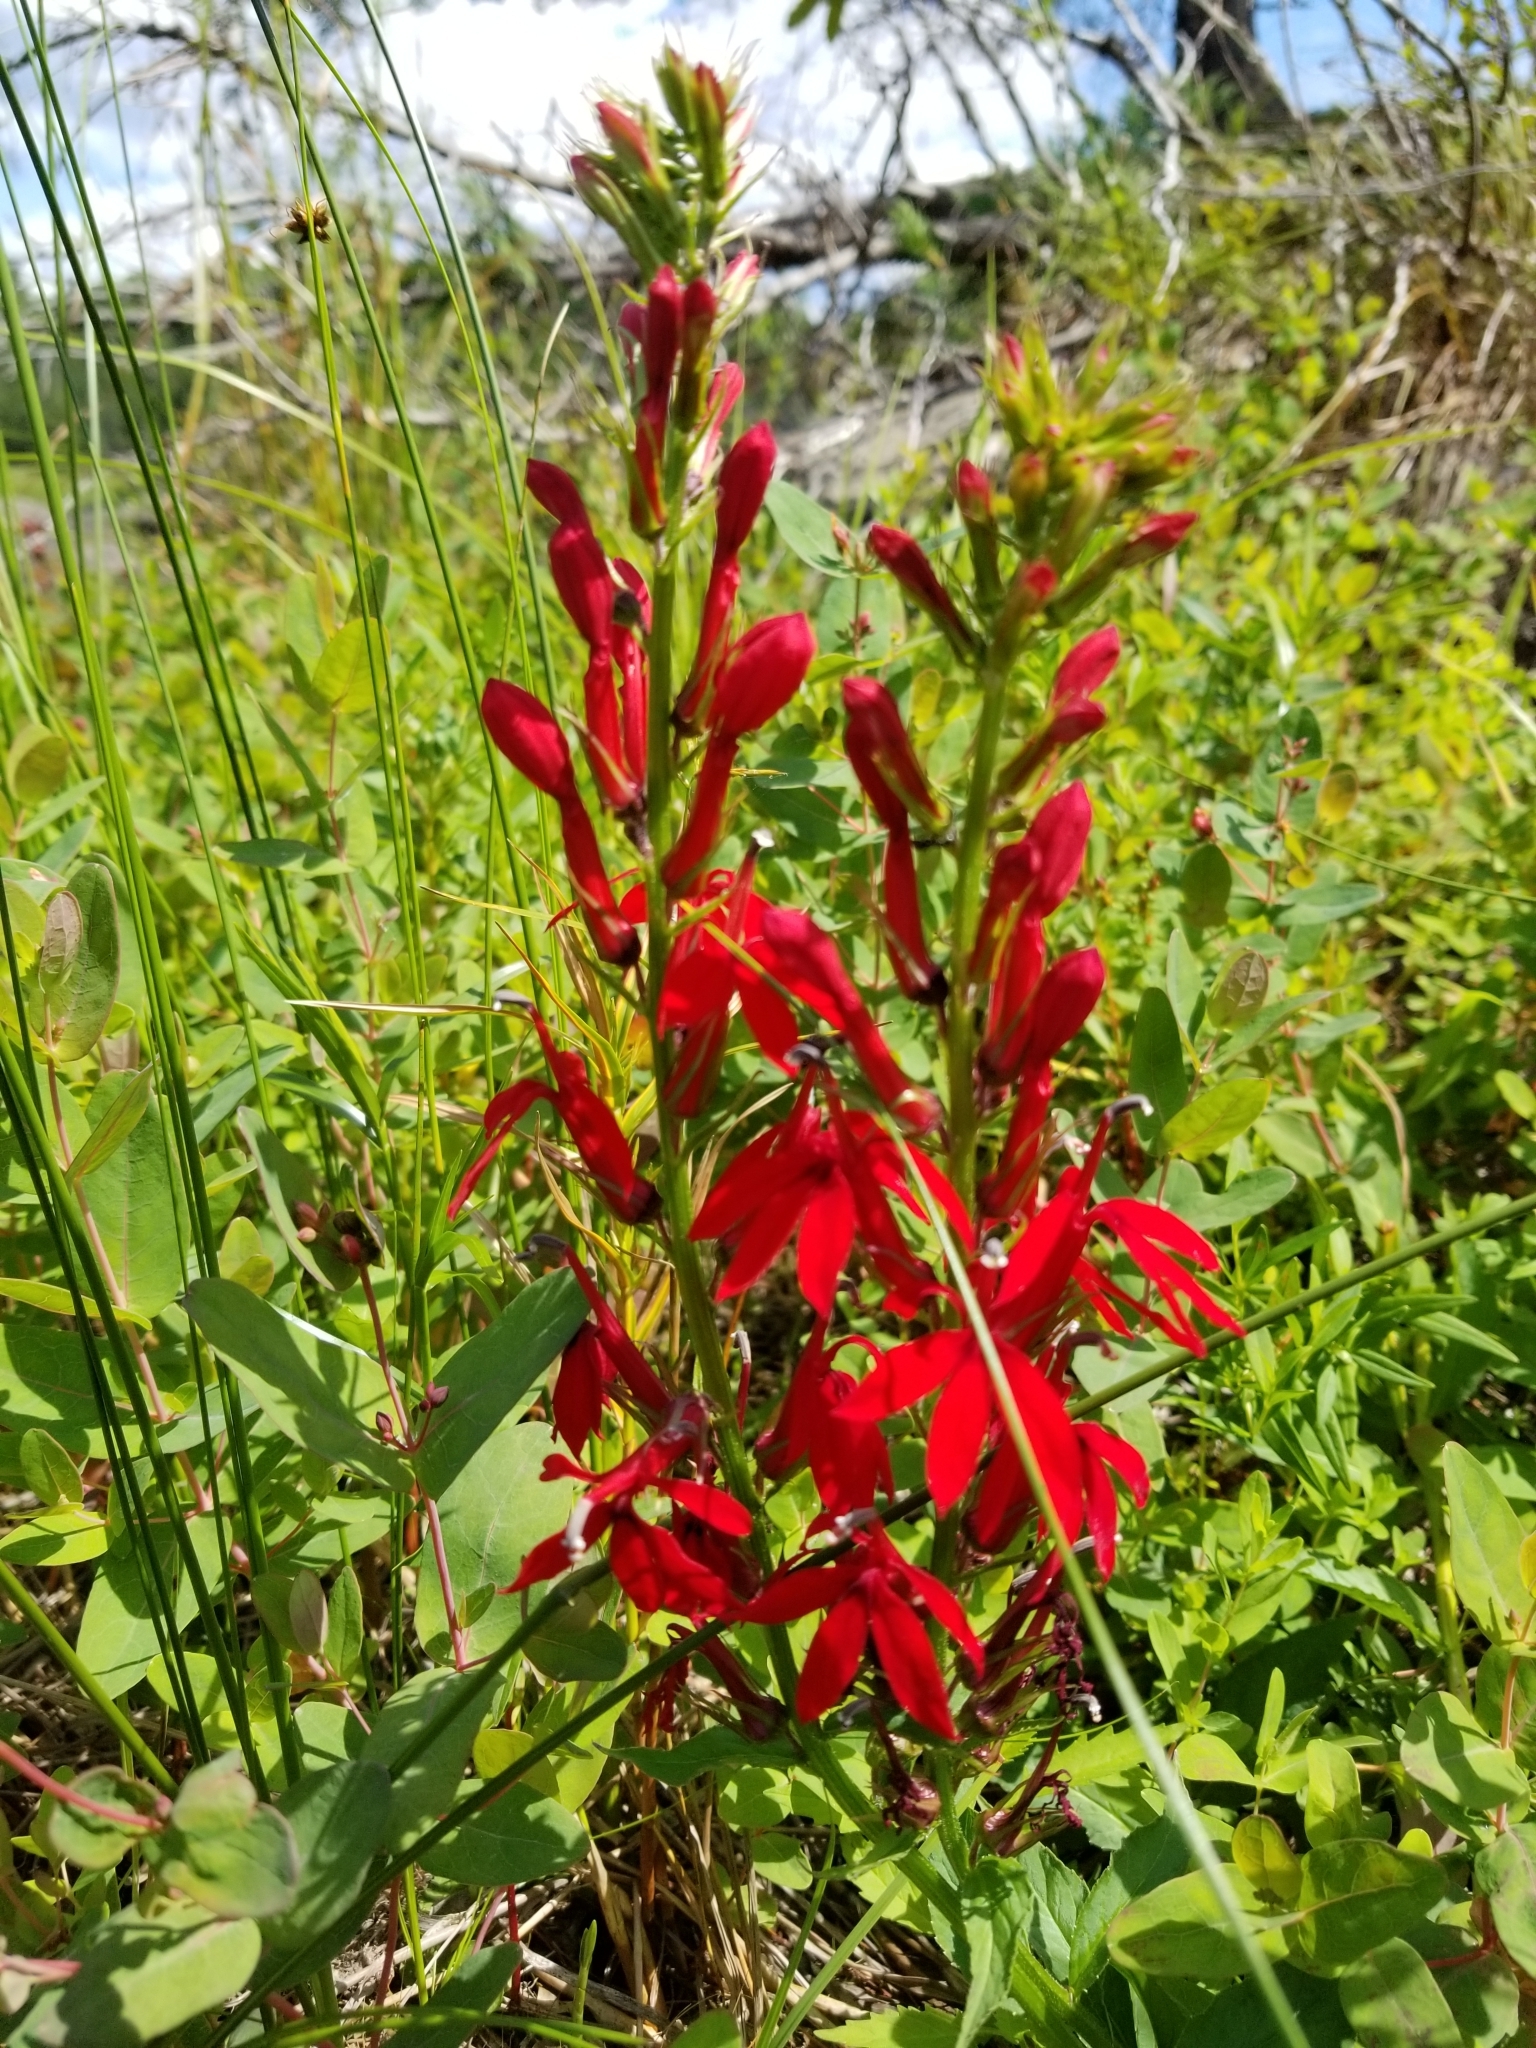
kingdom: Plantae
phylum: Tracheophyta
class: Magnoliopsida
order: Asterales
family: Campanulaceae
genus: Lobelia
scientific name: Lobelia cardinalis
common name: Cardinal flower
